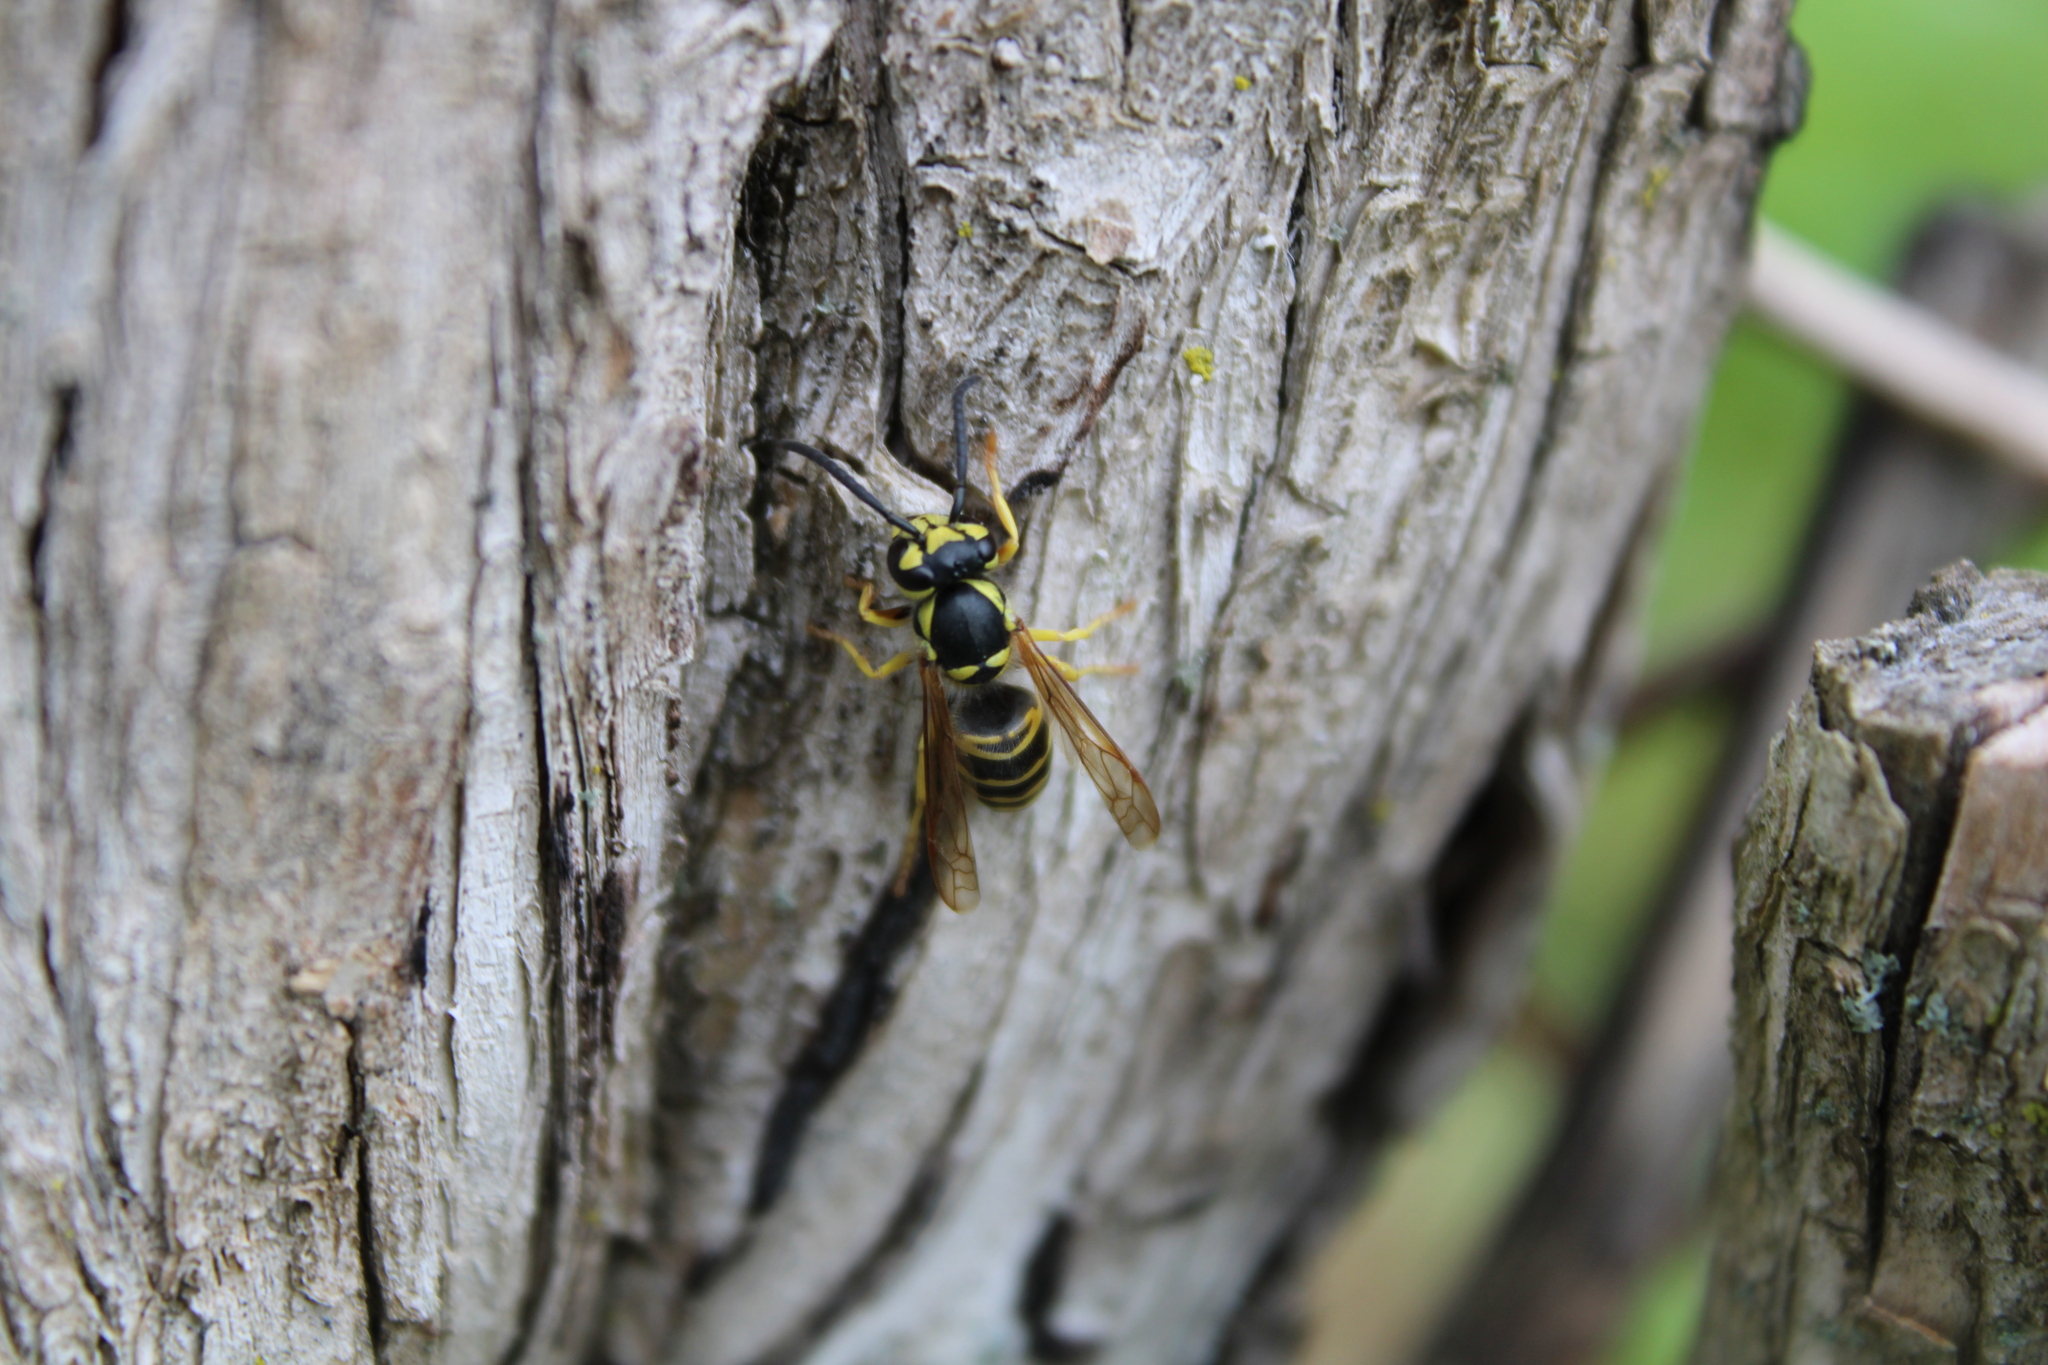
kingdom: Animalia
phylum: Arthropoda
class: Insecta
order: Hymenoptera
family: Vespidae
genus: Vespula
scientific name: Vespula maculifrons
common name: Eastern yellowjacket
